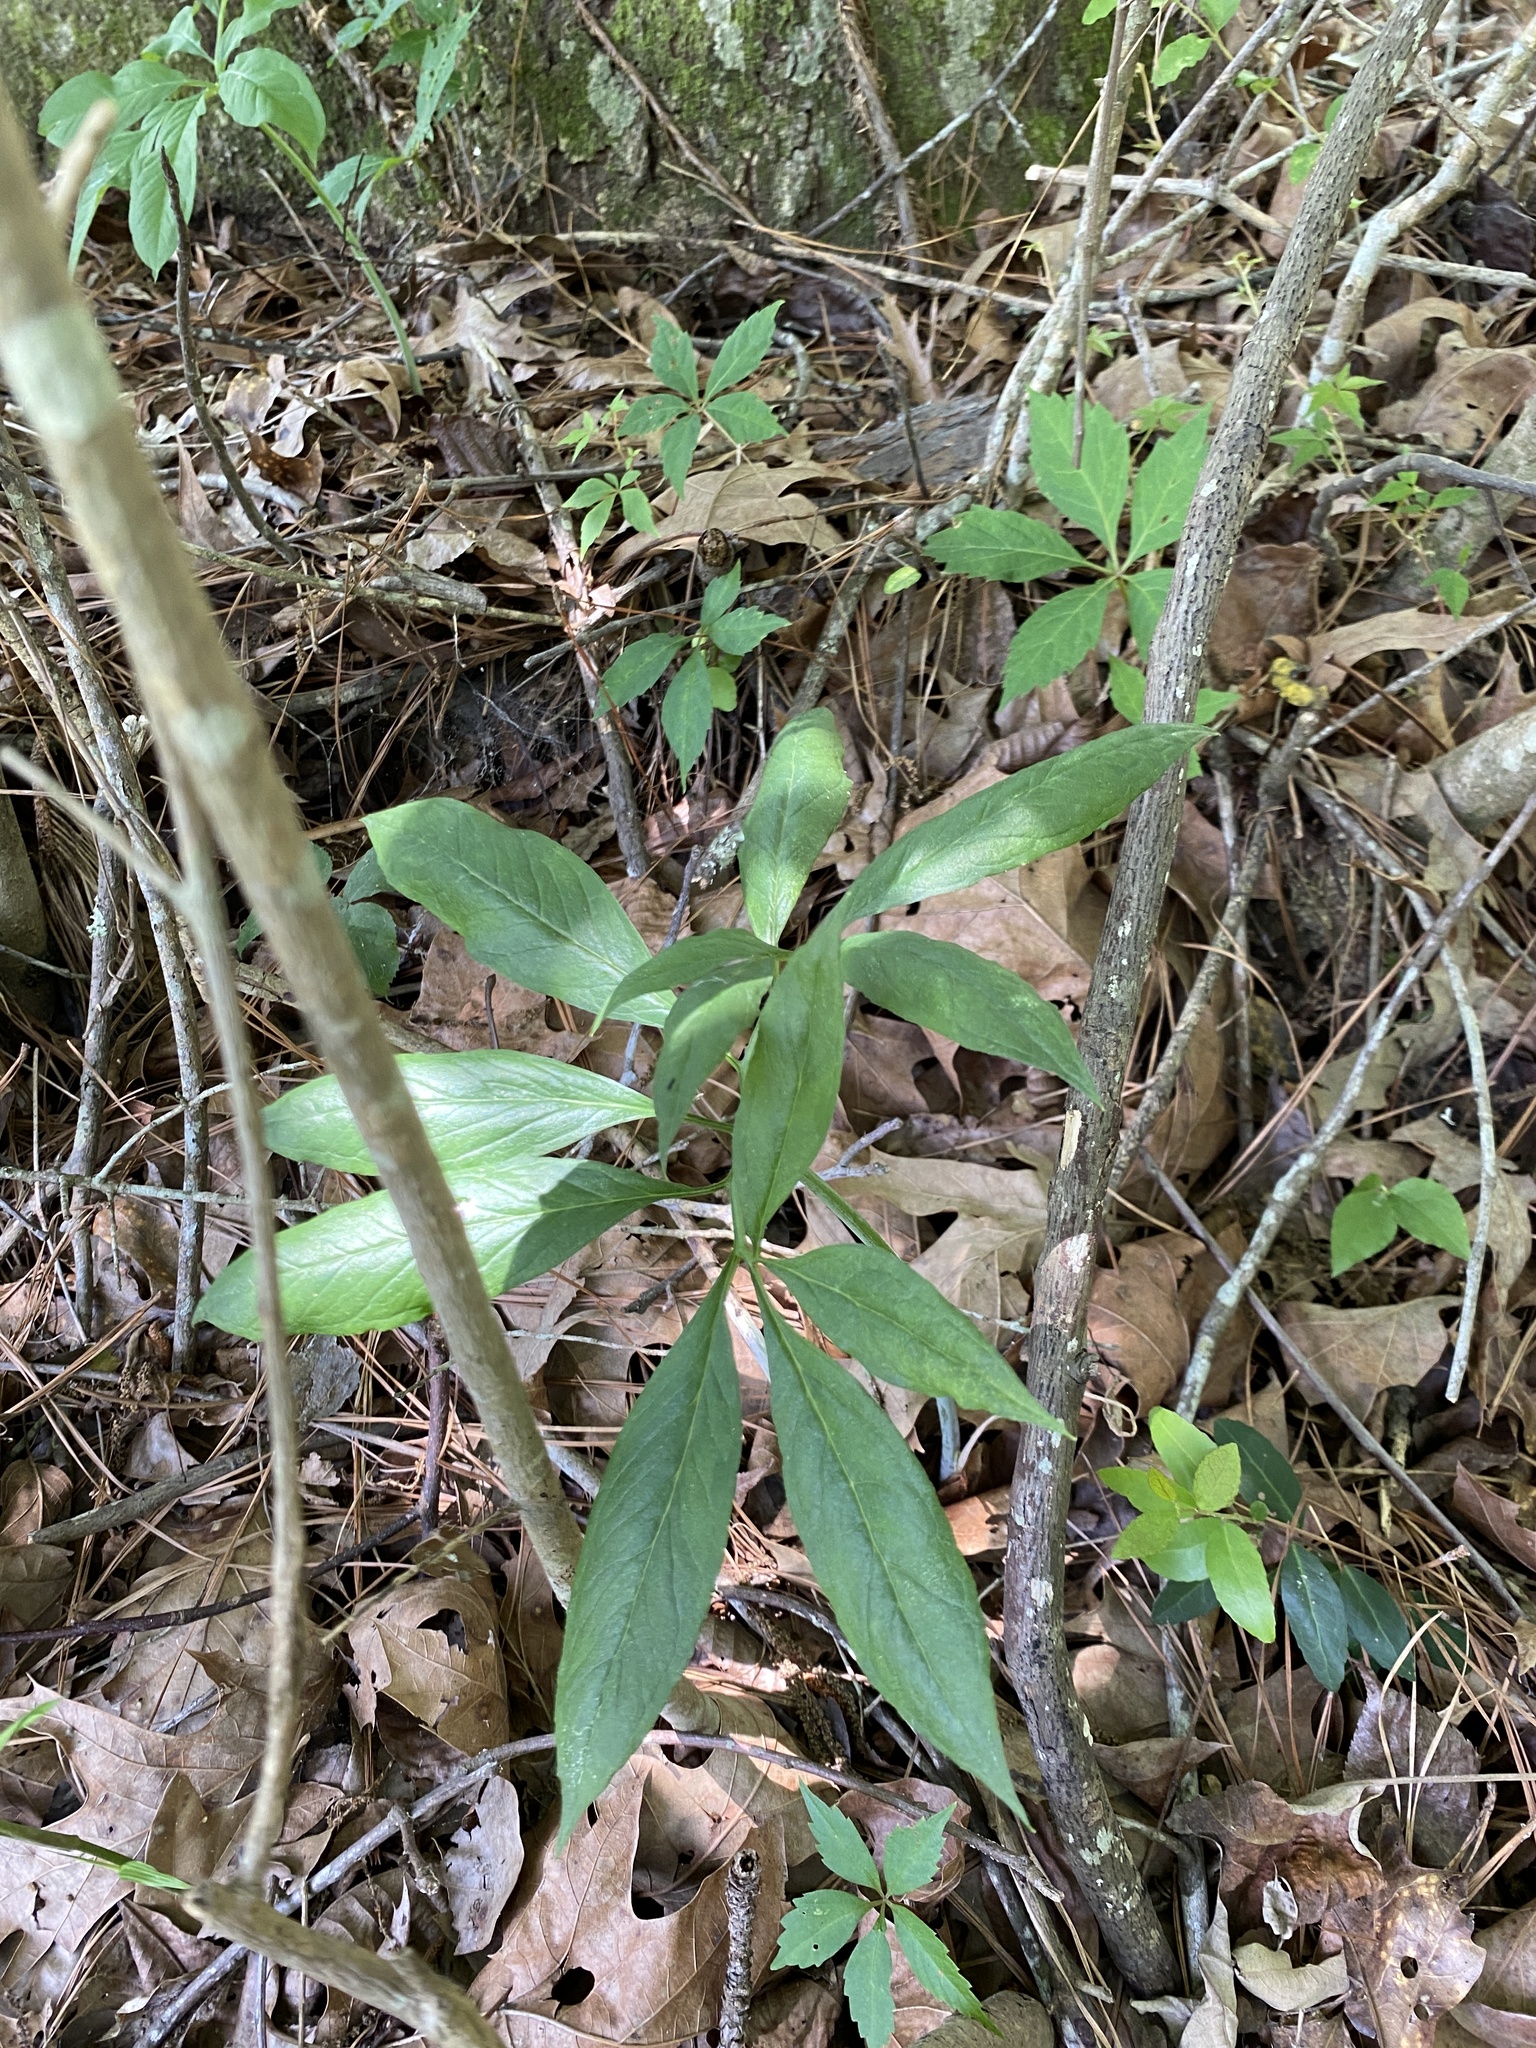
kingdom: Plantae
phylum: Tracheophyta
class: Liliopsida
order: Alismatales
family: Araceae
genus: Arisaema
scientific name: Arisaema dracontium
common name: Dragon-arum
